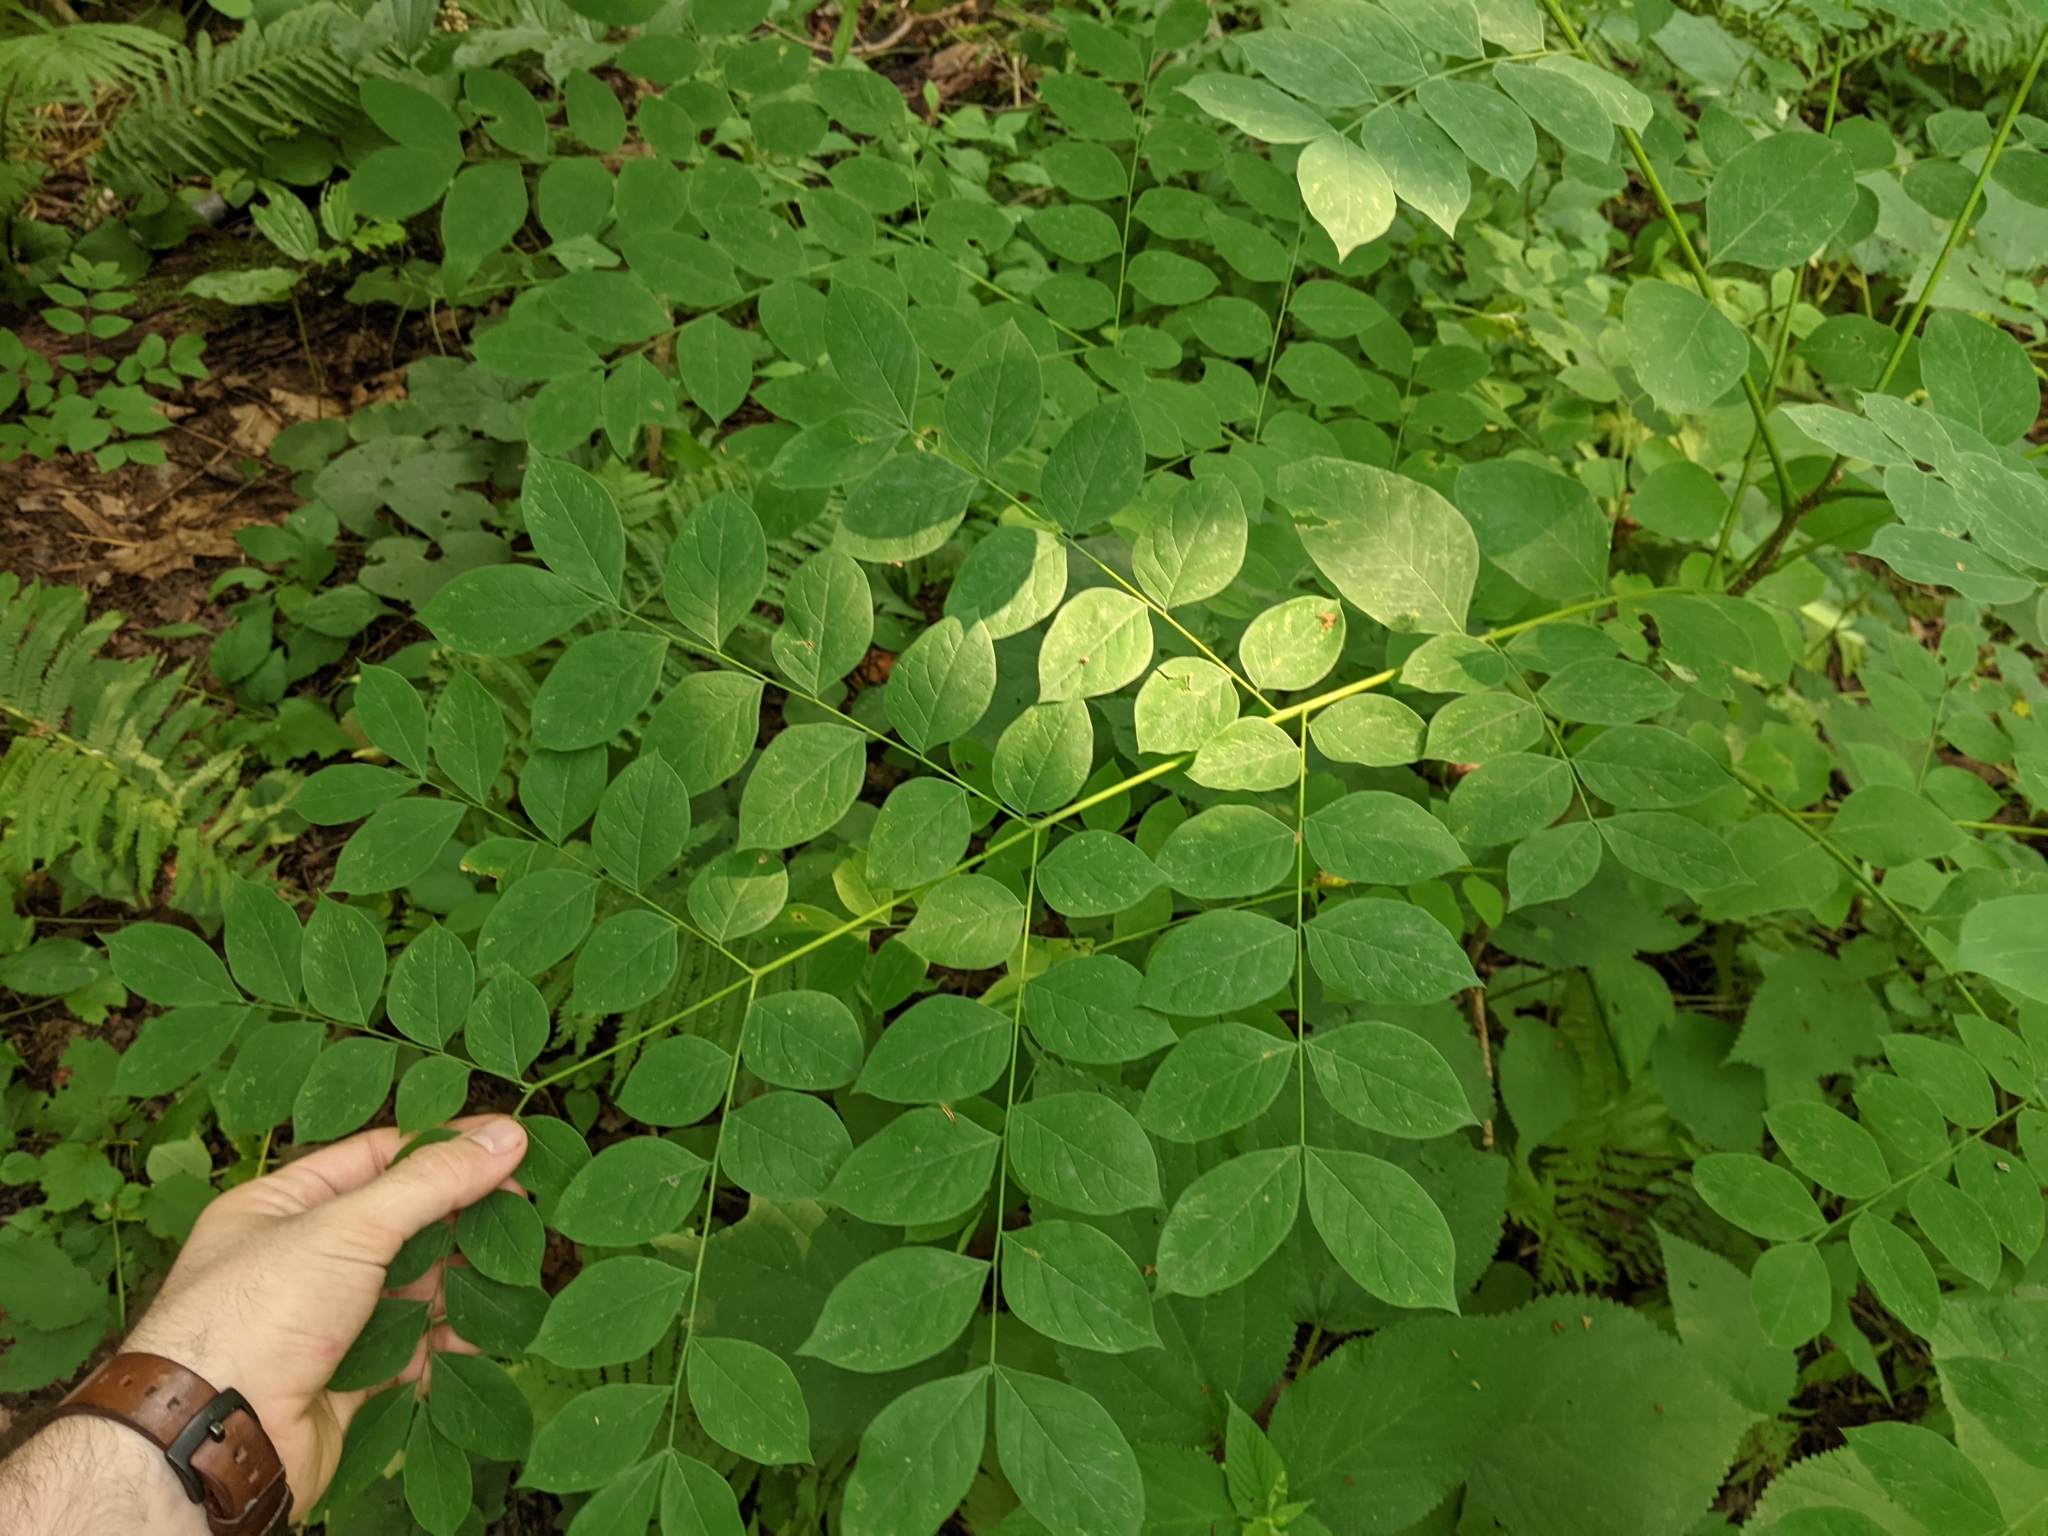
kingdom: Plantae
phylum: Tracheophyta
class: Magnoliopsida
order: Fabales
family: Fabaceae
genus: Gymnocladus
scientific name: Gymnocladus dioicus
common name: Kentucky coffee-tree
